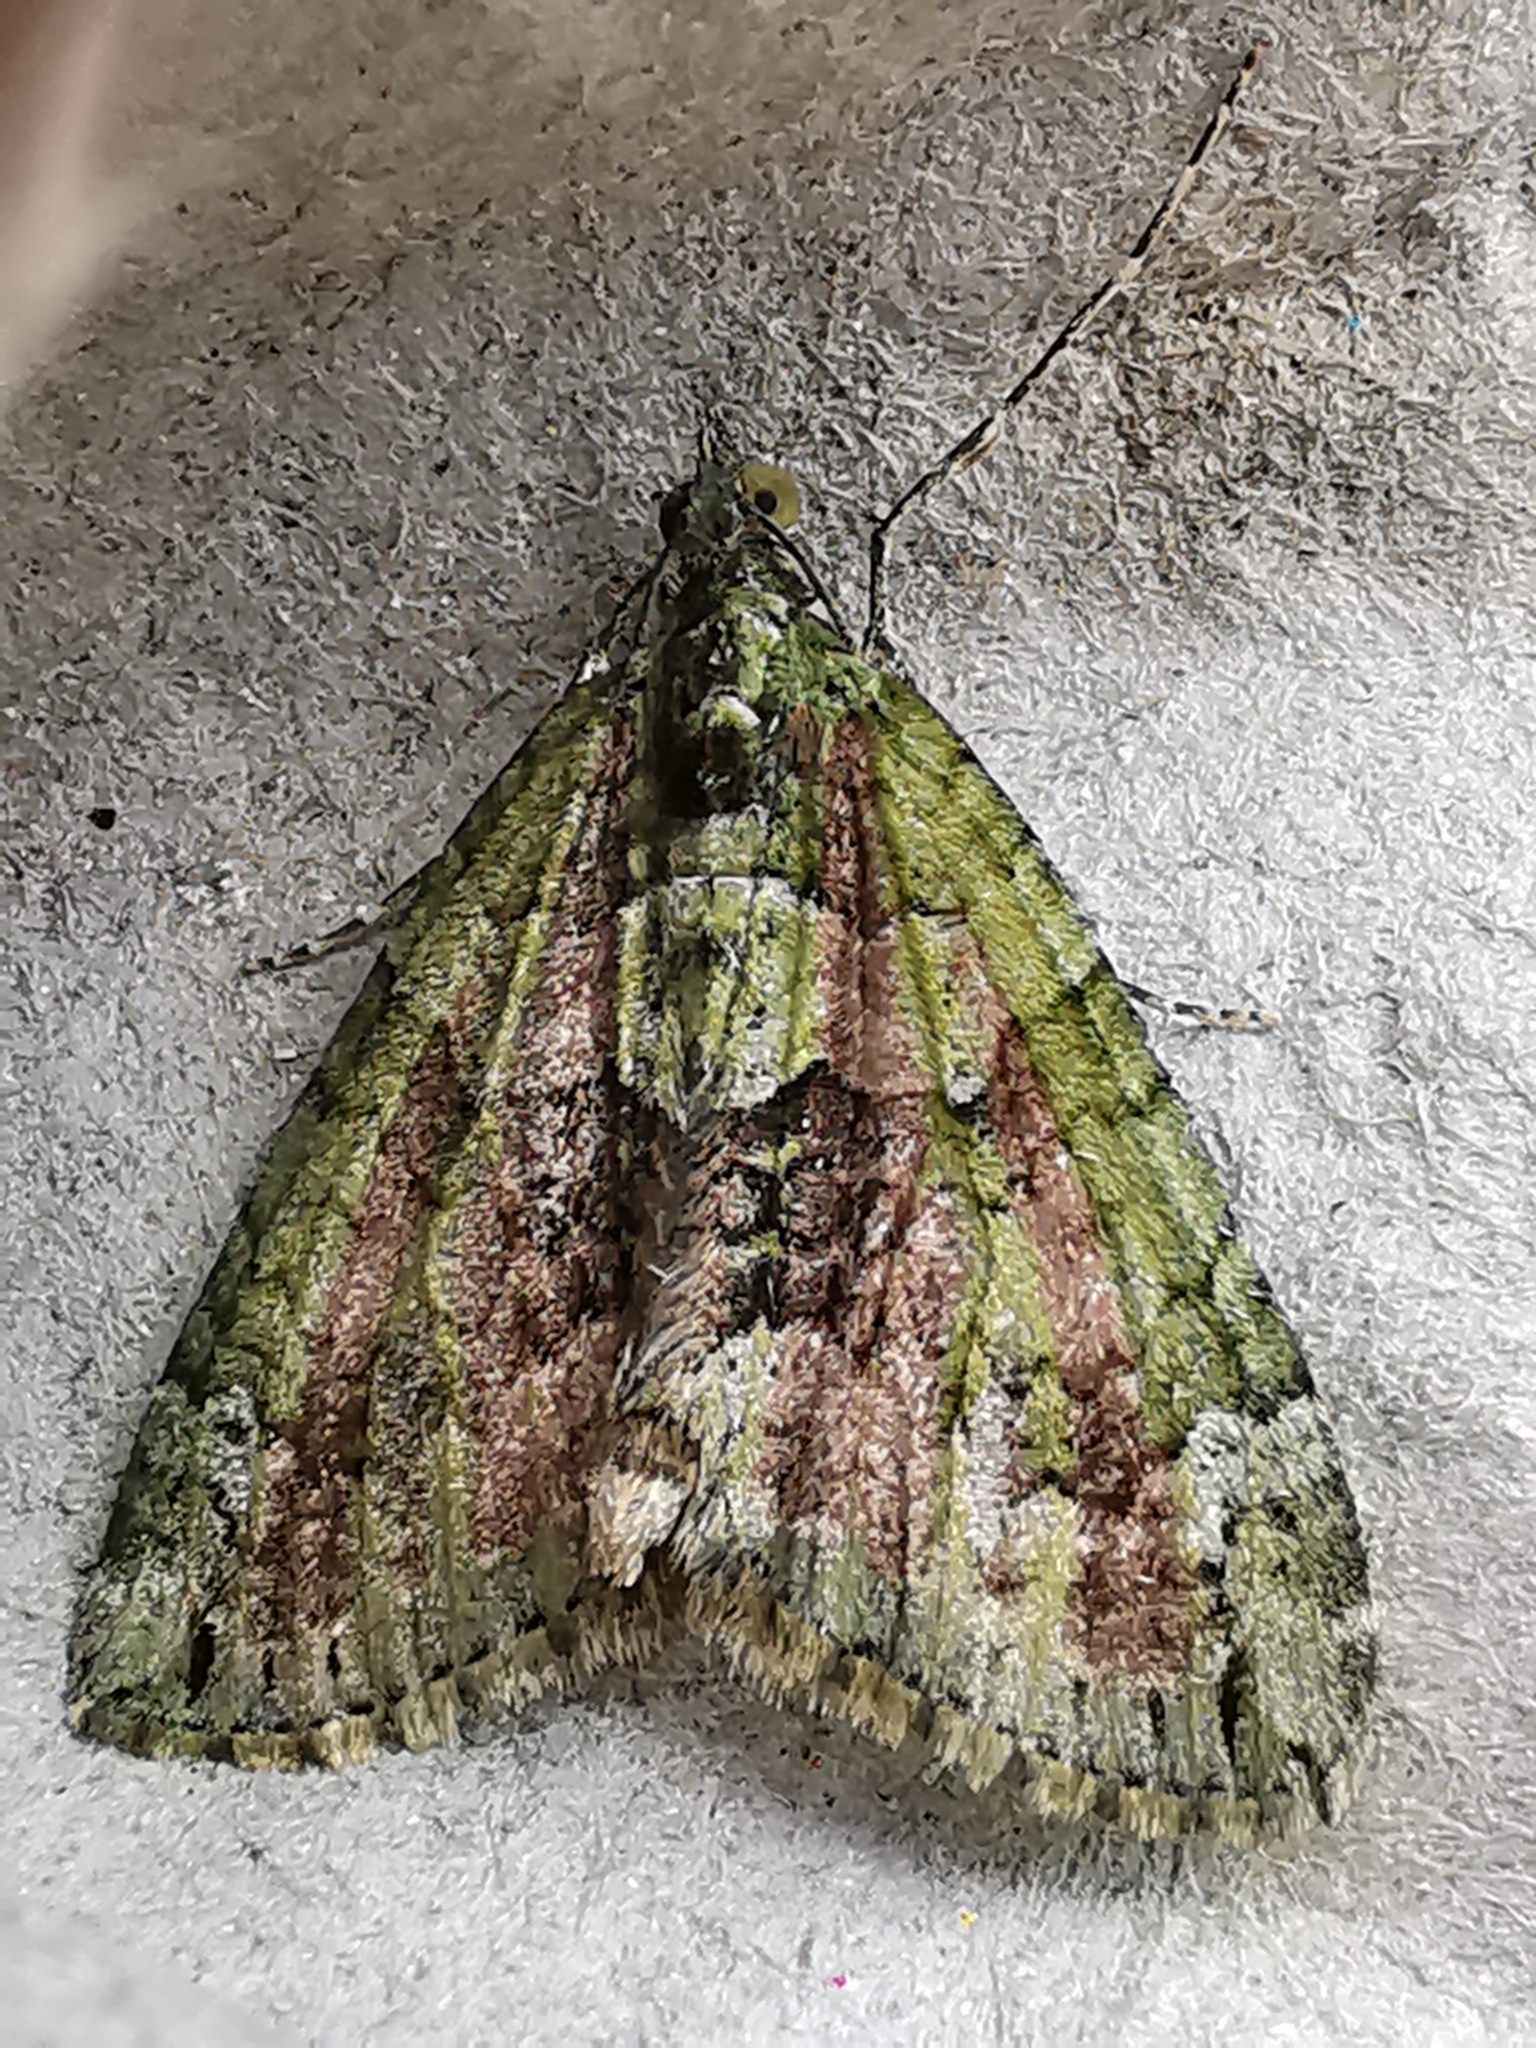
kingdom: Animalia
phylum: Arthropoda
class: Insecta
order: Lepidoptera
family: Geometridae
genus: Chloroclysta
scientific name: Chloroclysta siterata
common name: Red-green carpet
